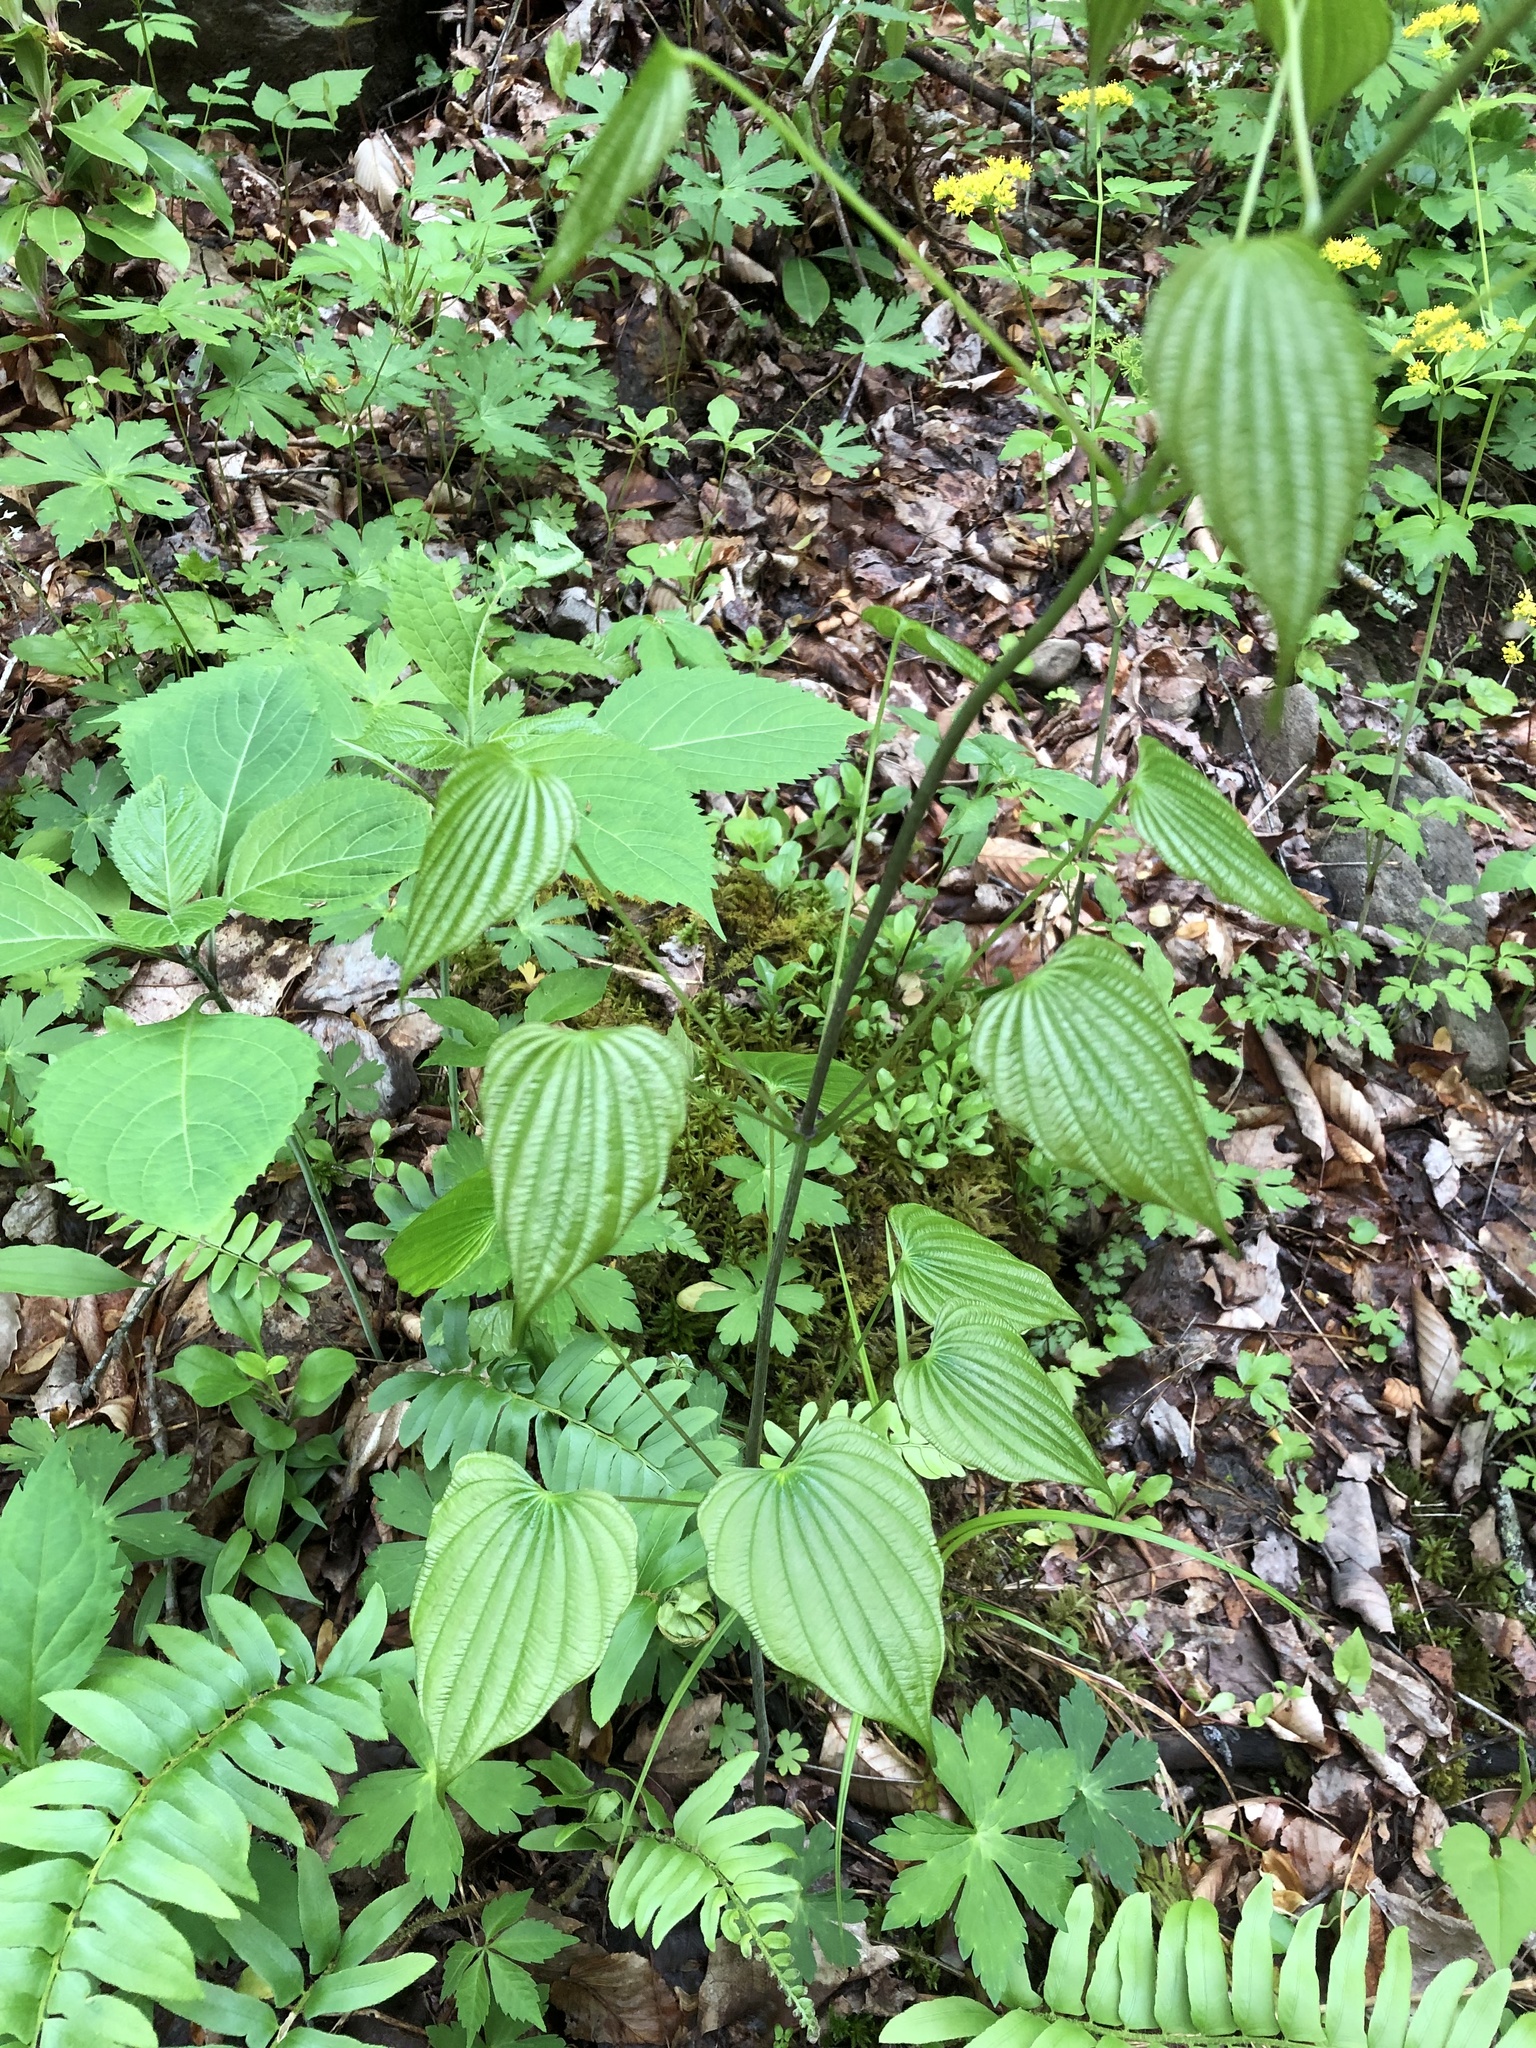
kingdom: Plantae
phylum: Tracheophyta
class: Liliopsida
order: Dioscoreales
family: Dioscoreaceae
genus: Dioscorea
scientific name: Dioscorea villosa
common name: Wild yam
